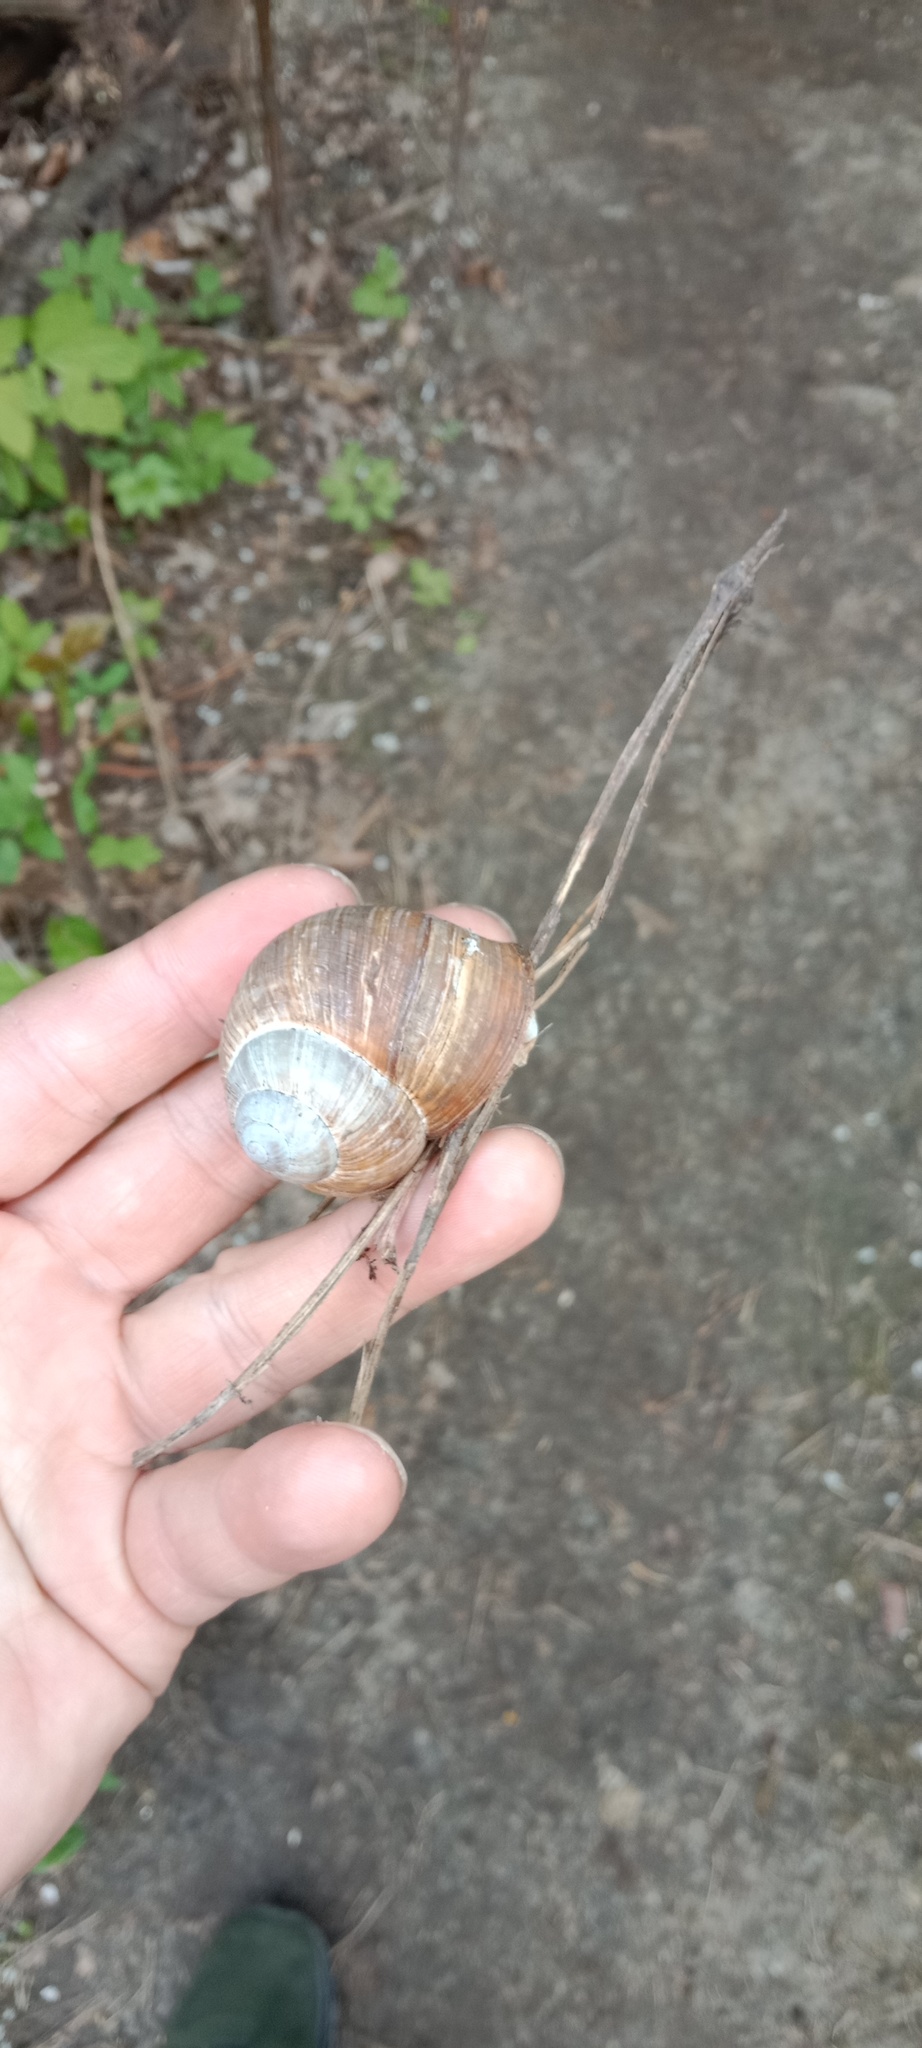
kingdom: Animalia
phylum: Mollusca
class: Gastropoda
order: Stylommatophora
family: Helicidae
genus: Helix
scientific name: Helix pomatia
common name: Roman snail
